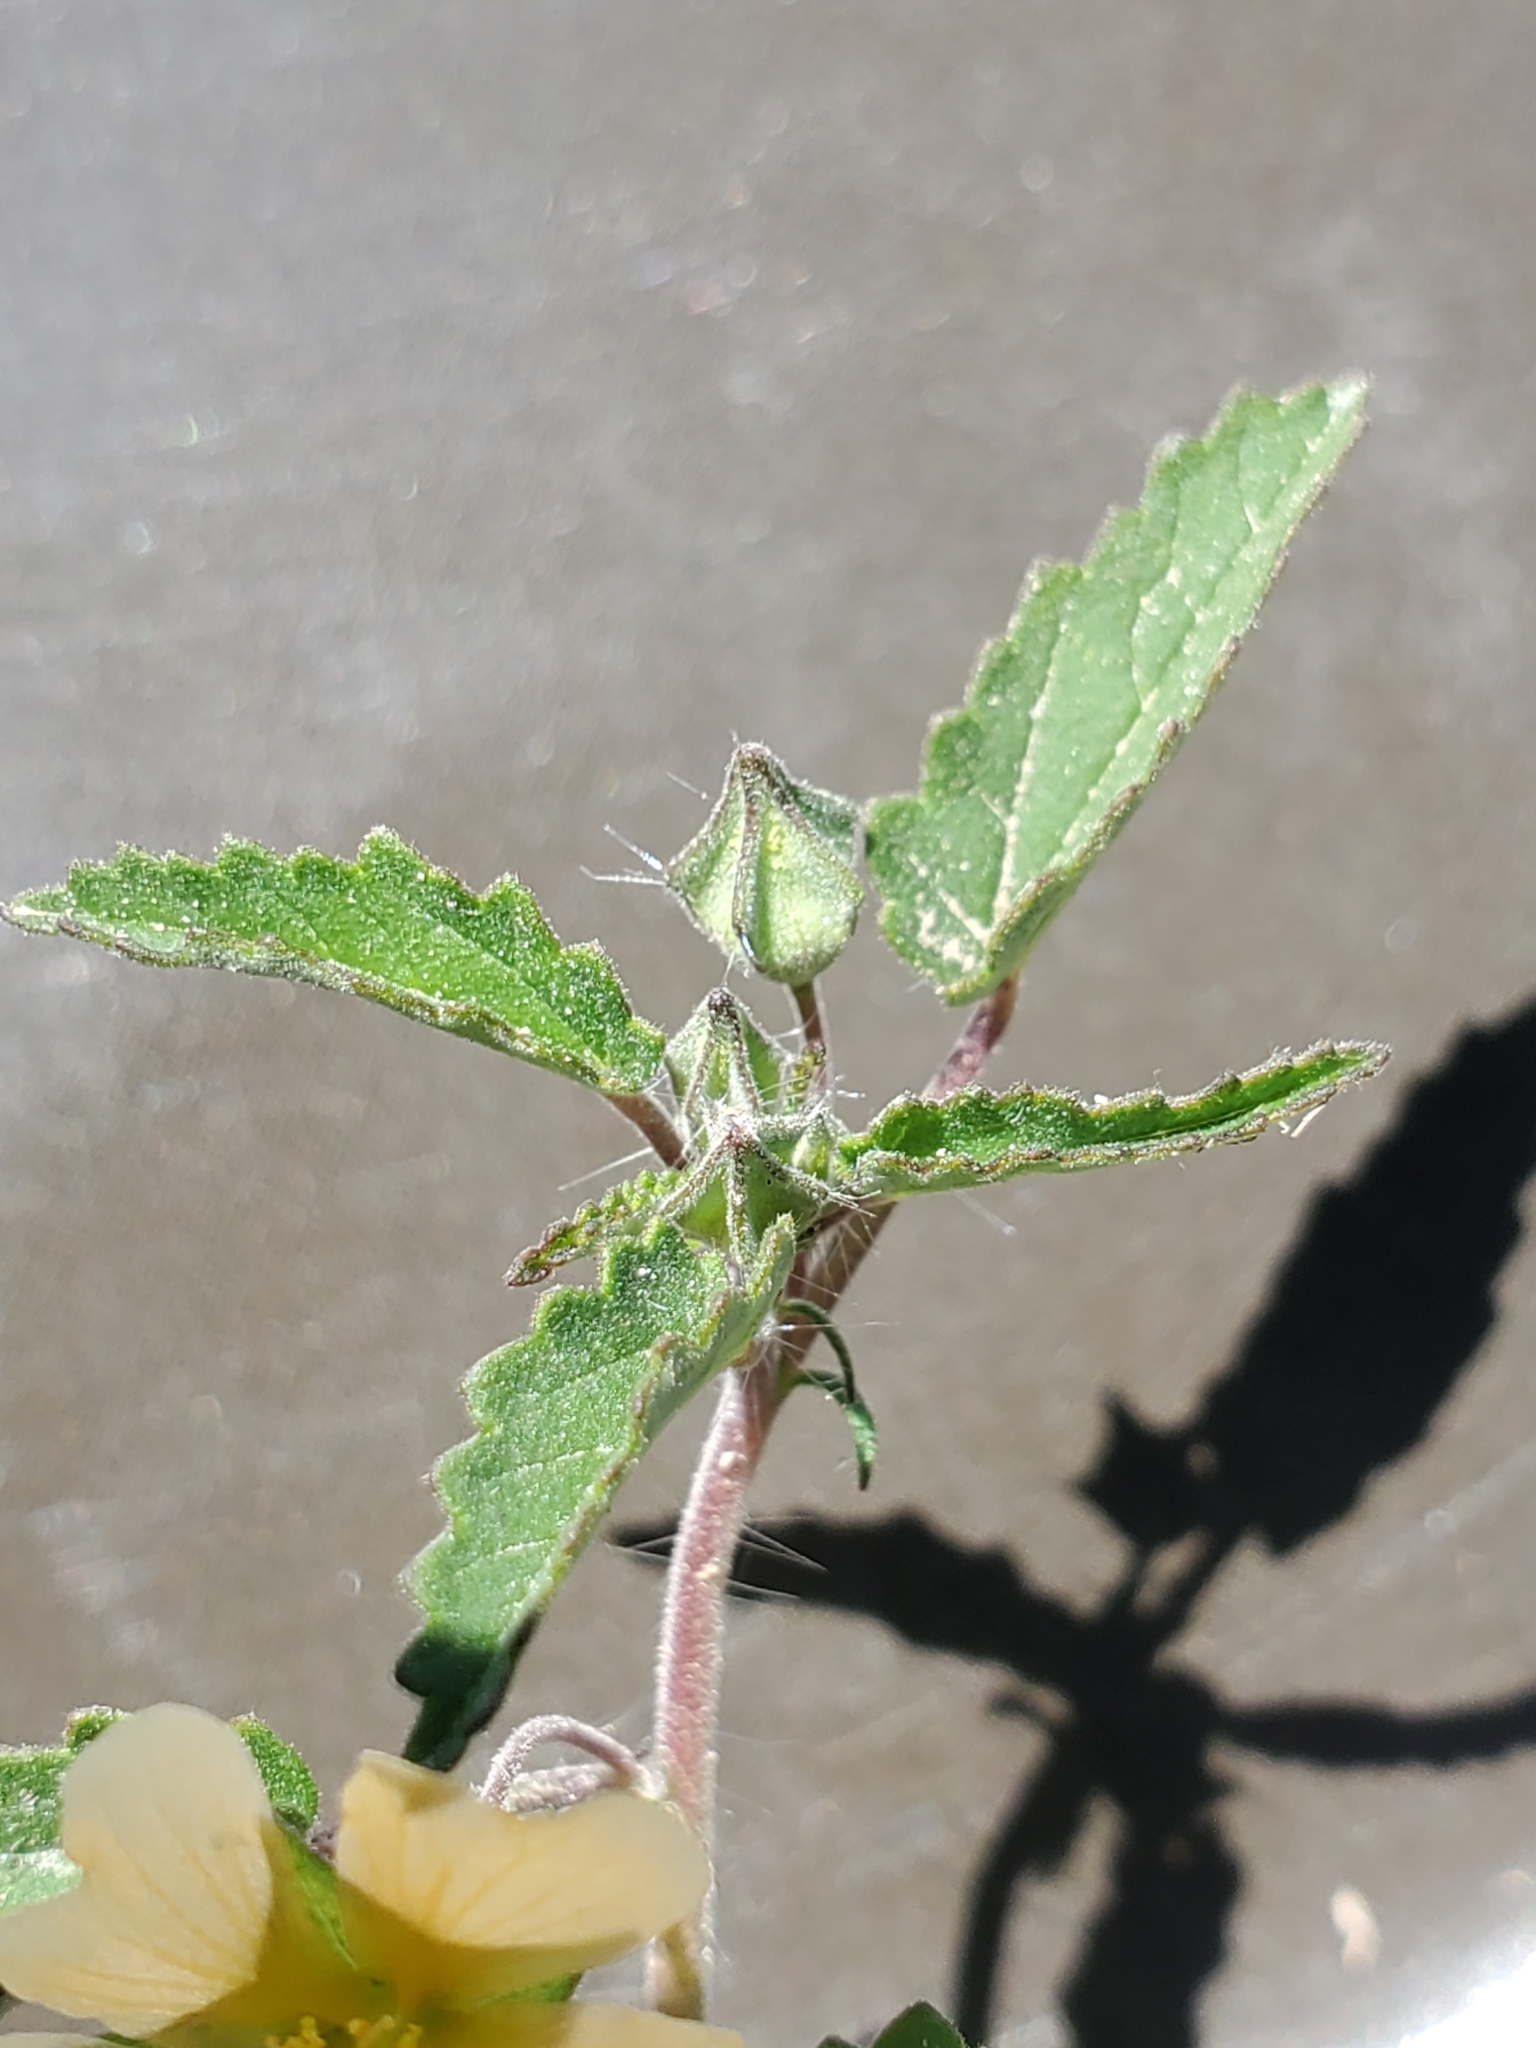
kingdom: Plantae
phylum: Tracheophyta
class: Magnoliopsida
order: Malvales
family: Malvaceae
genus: Sida
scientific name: Sida abutilifolia
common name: Spreading fanpetals
